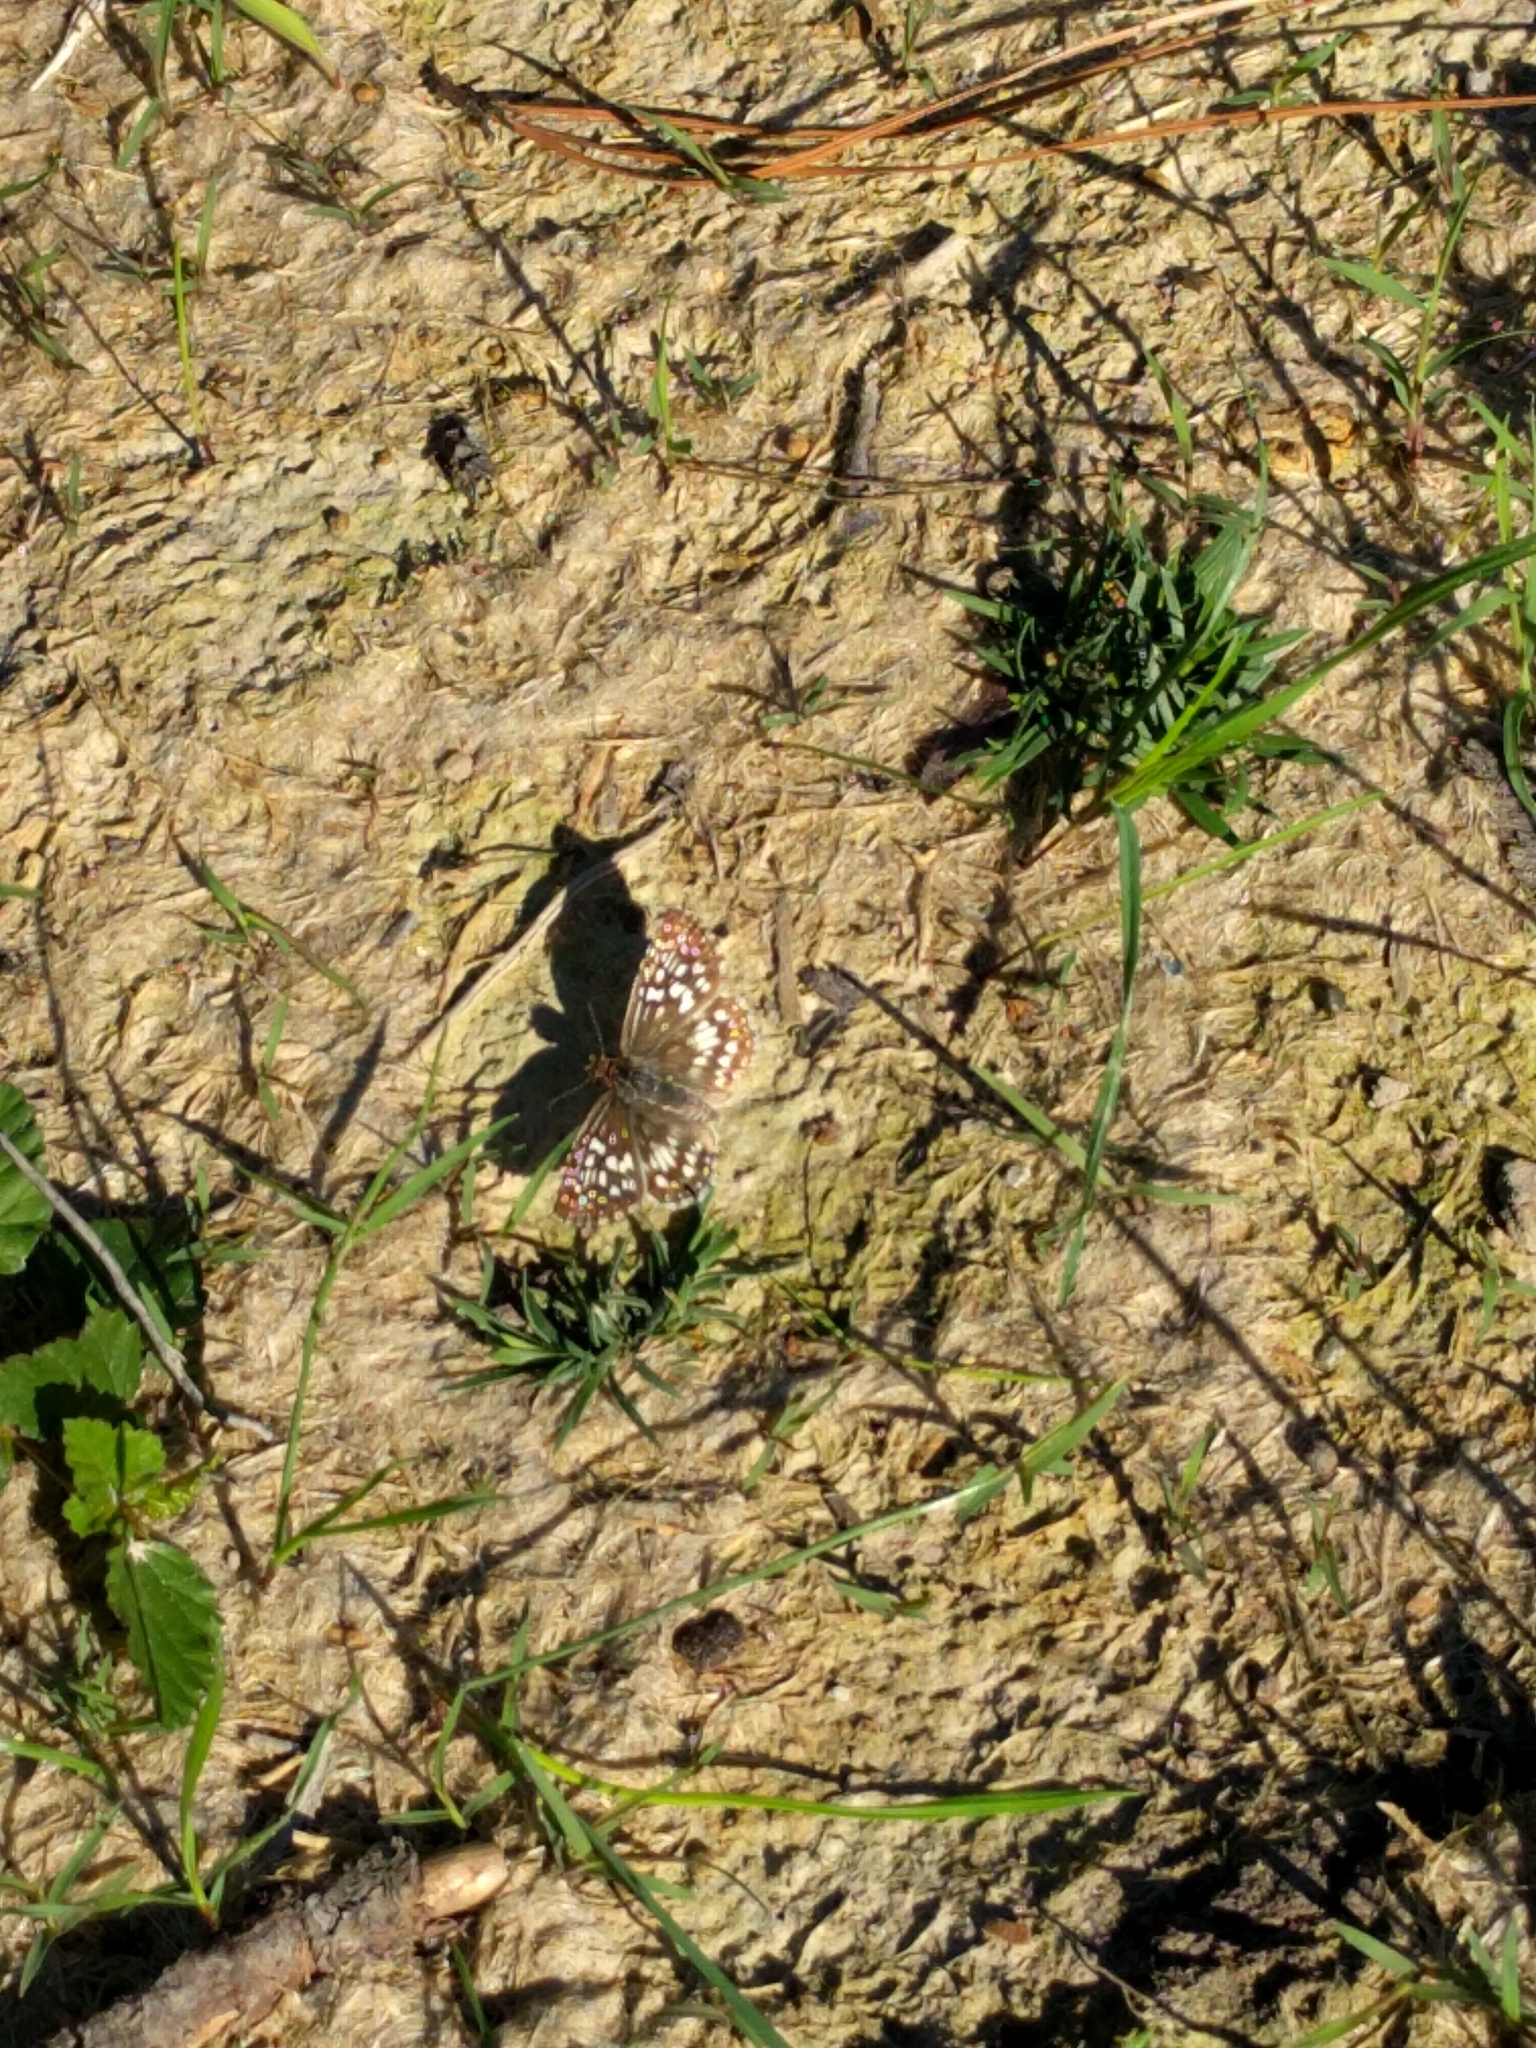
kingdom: Animalia
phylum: Arthropoda
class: Insecta
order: Lepidoptera
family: Hesperiidae
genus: Pyrgus
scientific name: Pyrgus oileus
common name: Tropical checkered-skipper
